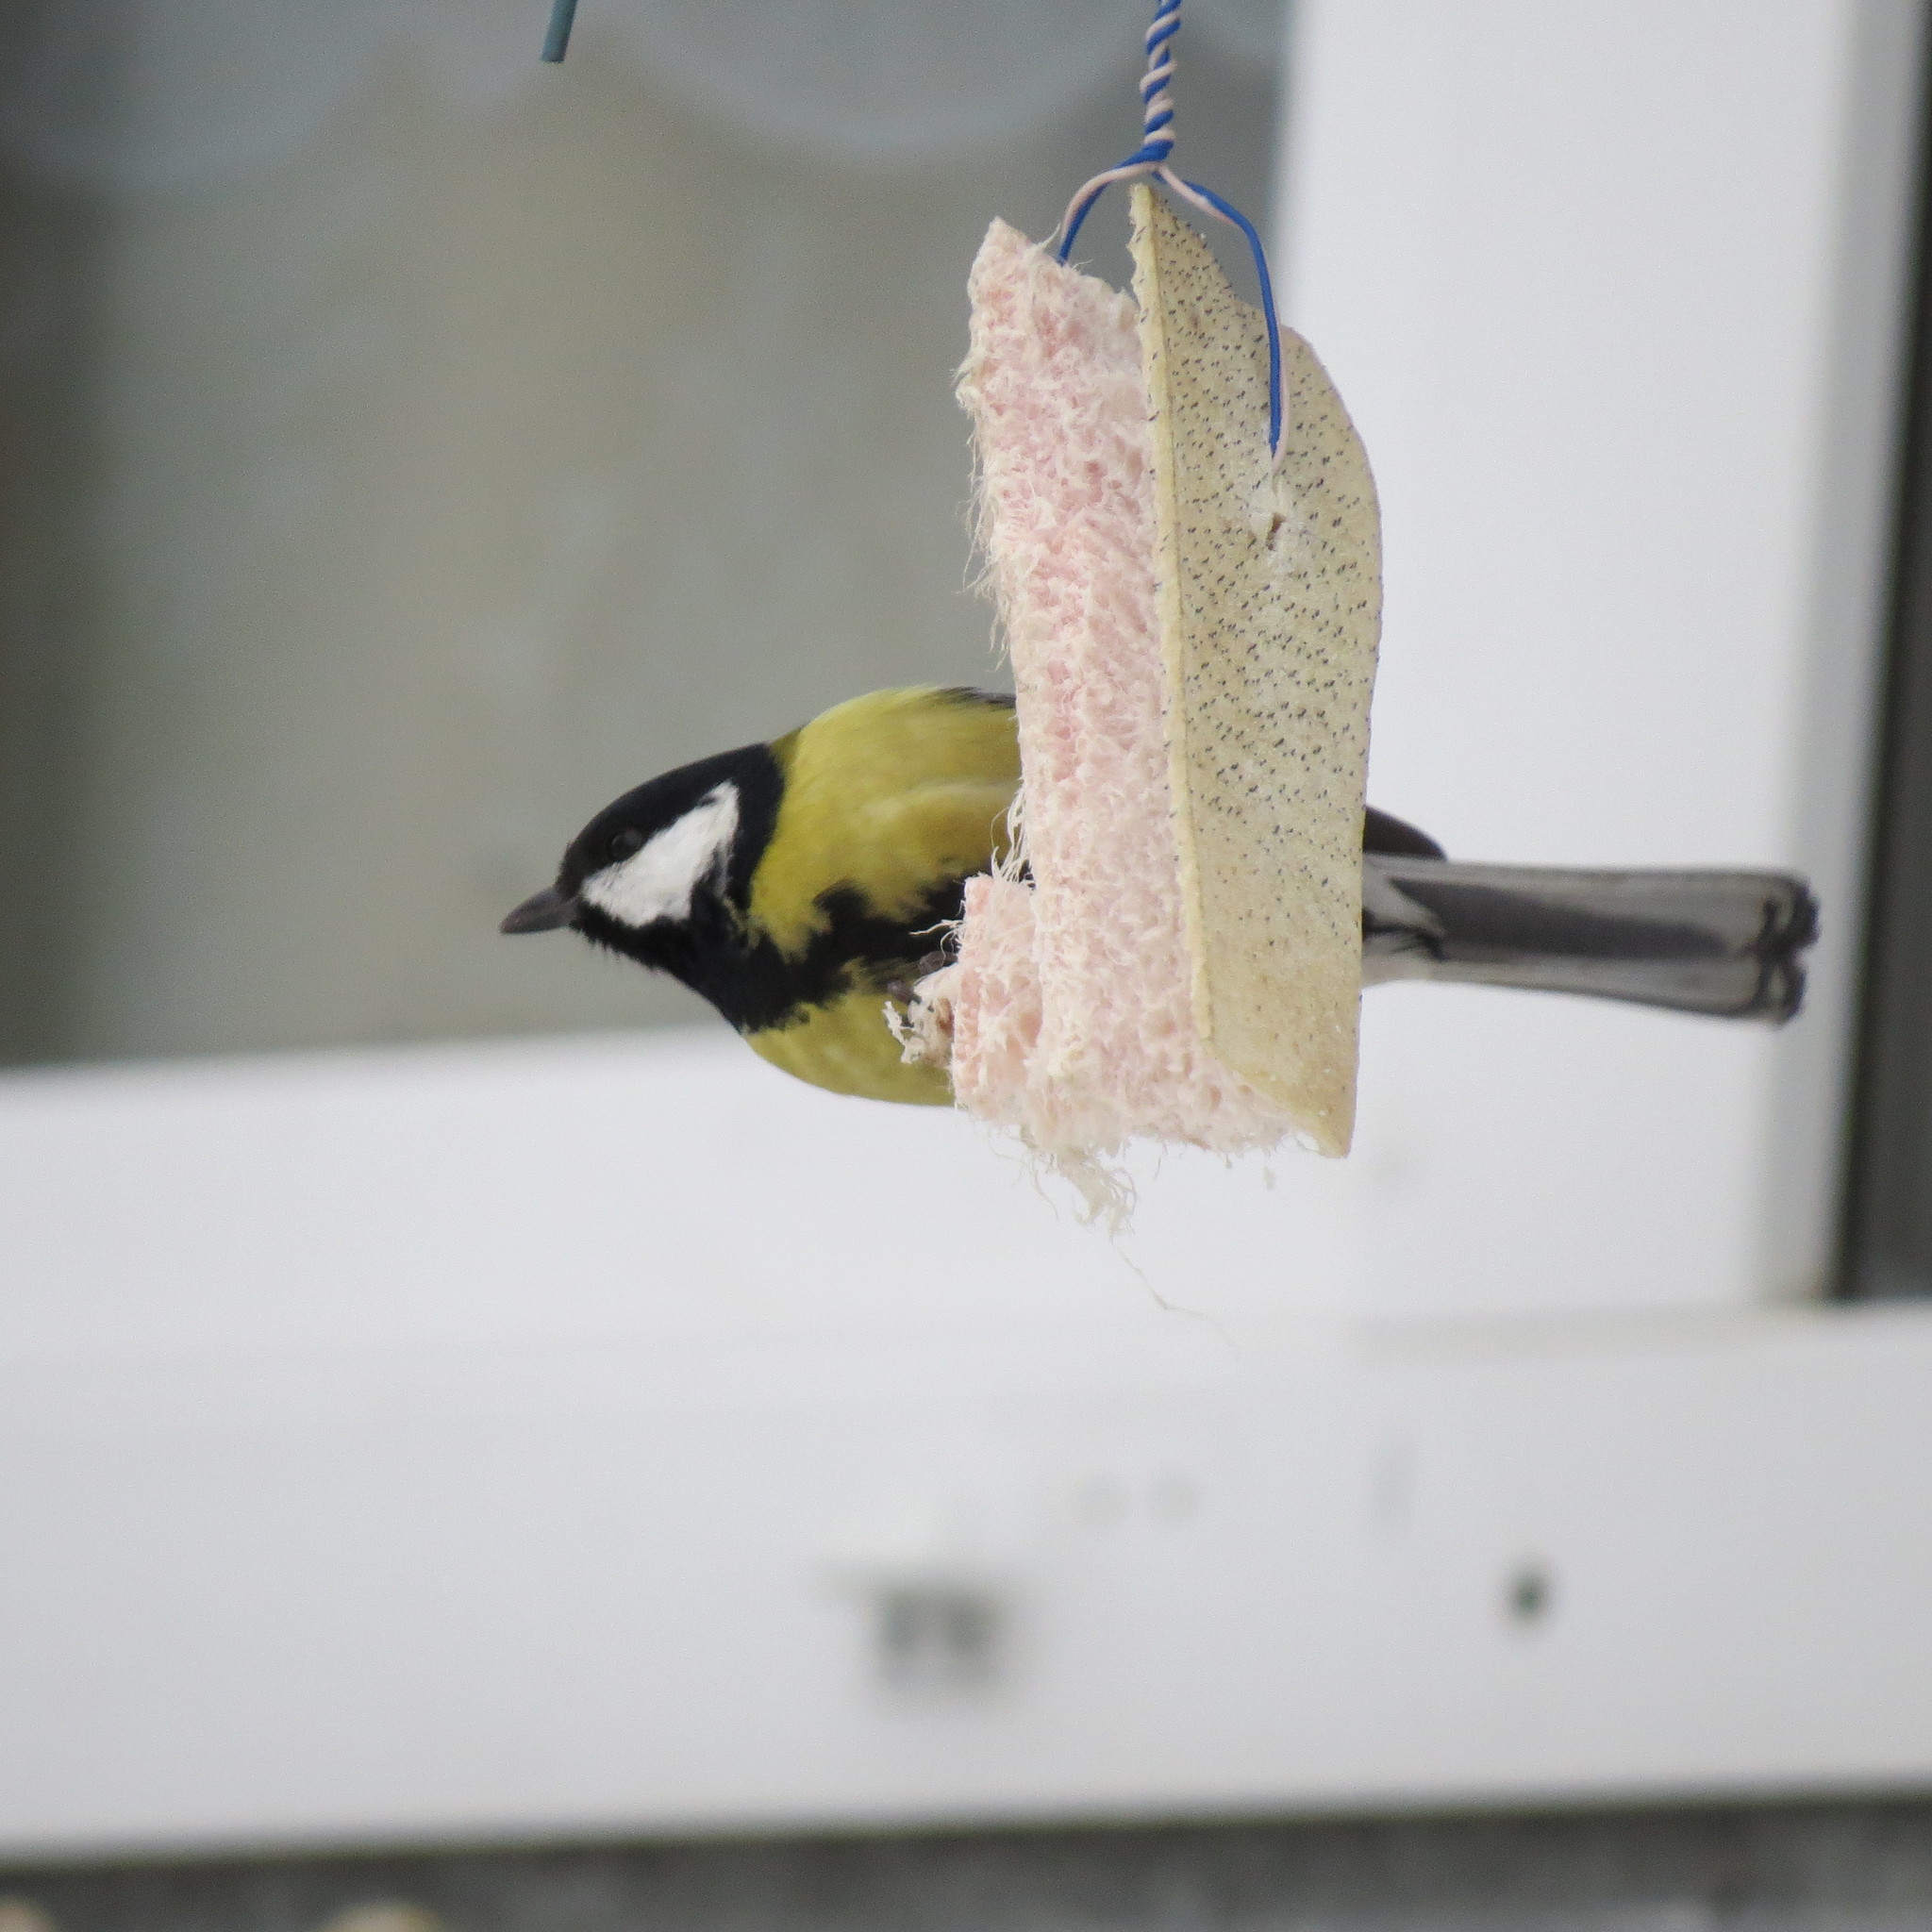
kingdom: Animalia
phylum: Chordata
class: Aves
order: Passeriformes
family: Paridae
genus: Parus
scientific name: Parus major
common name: Great tit
